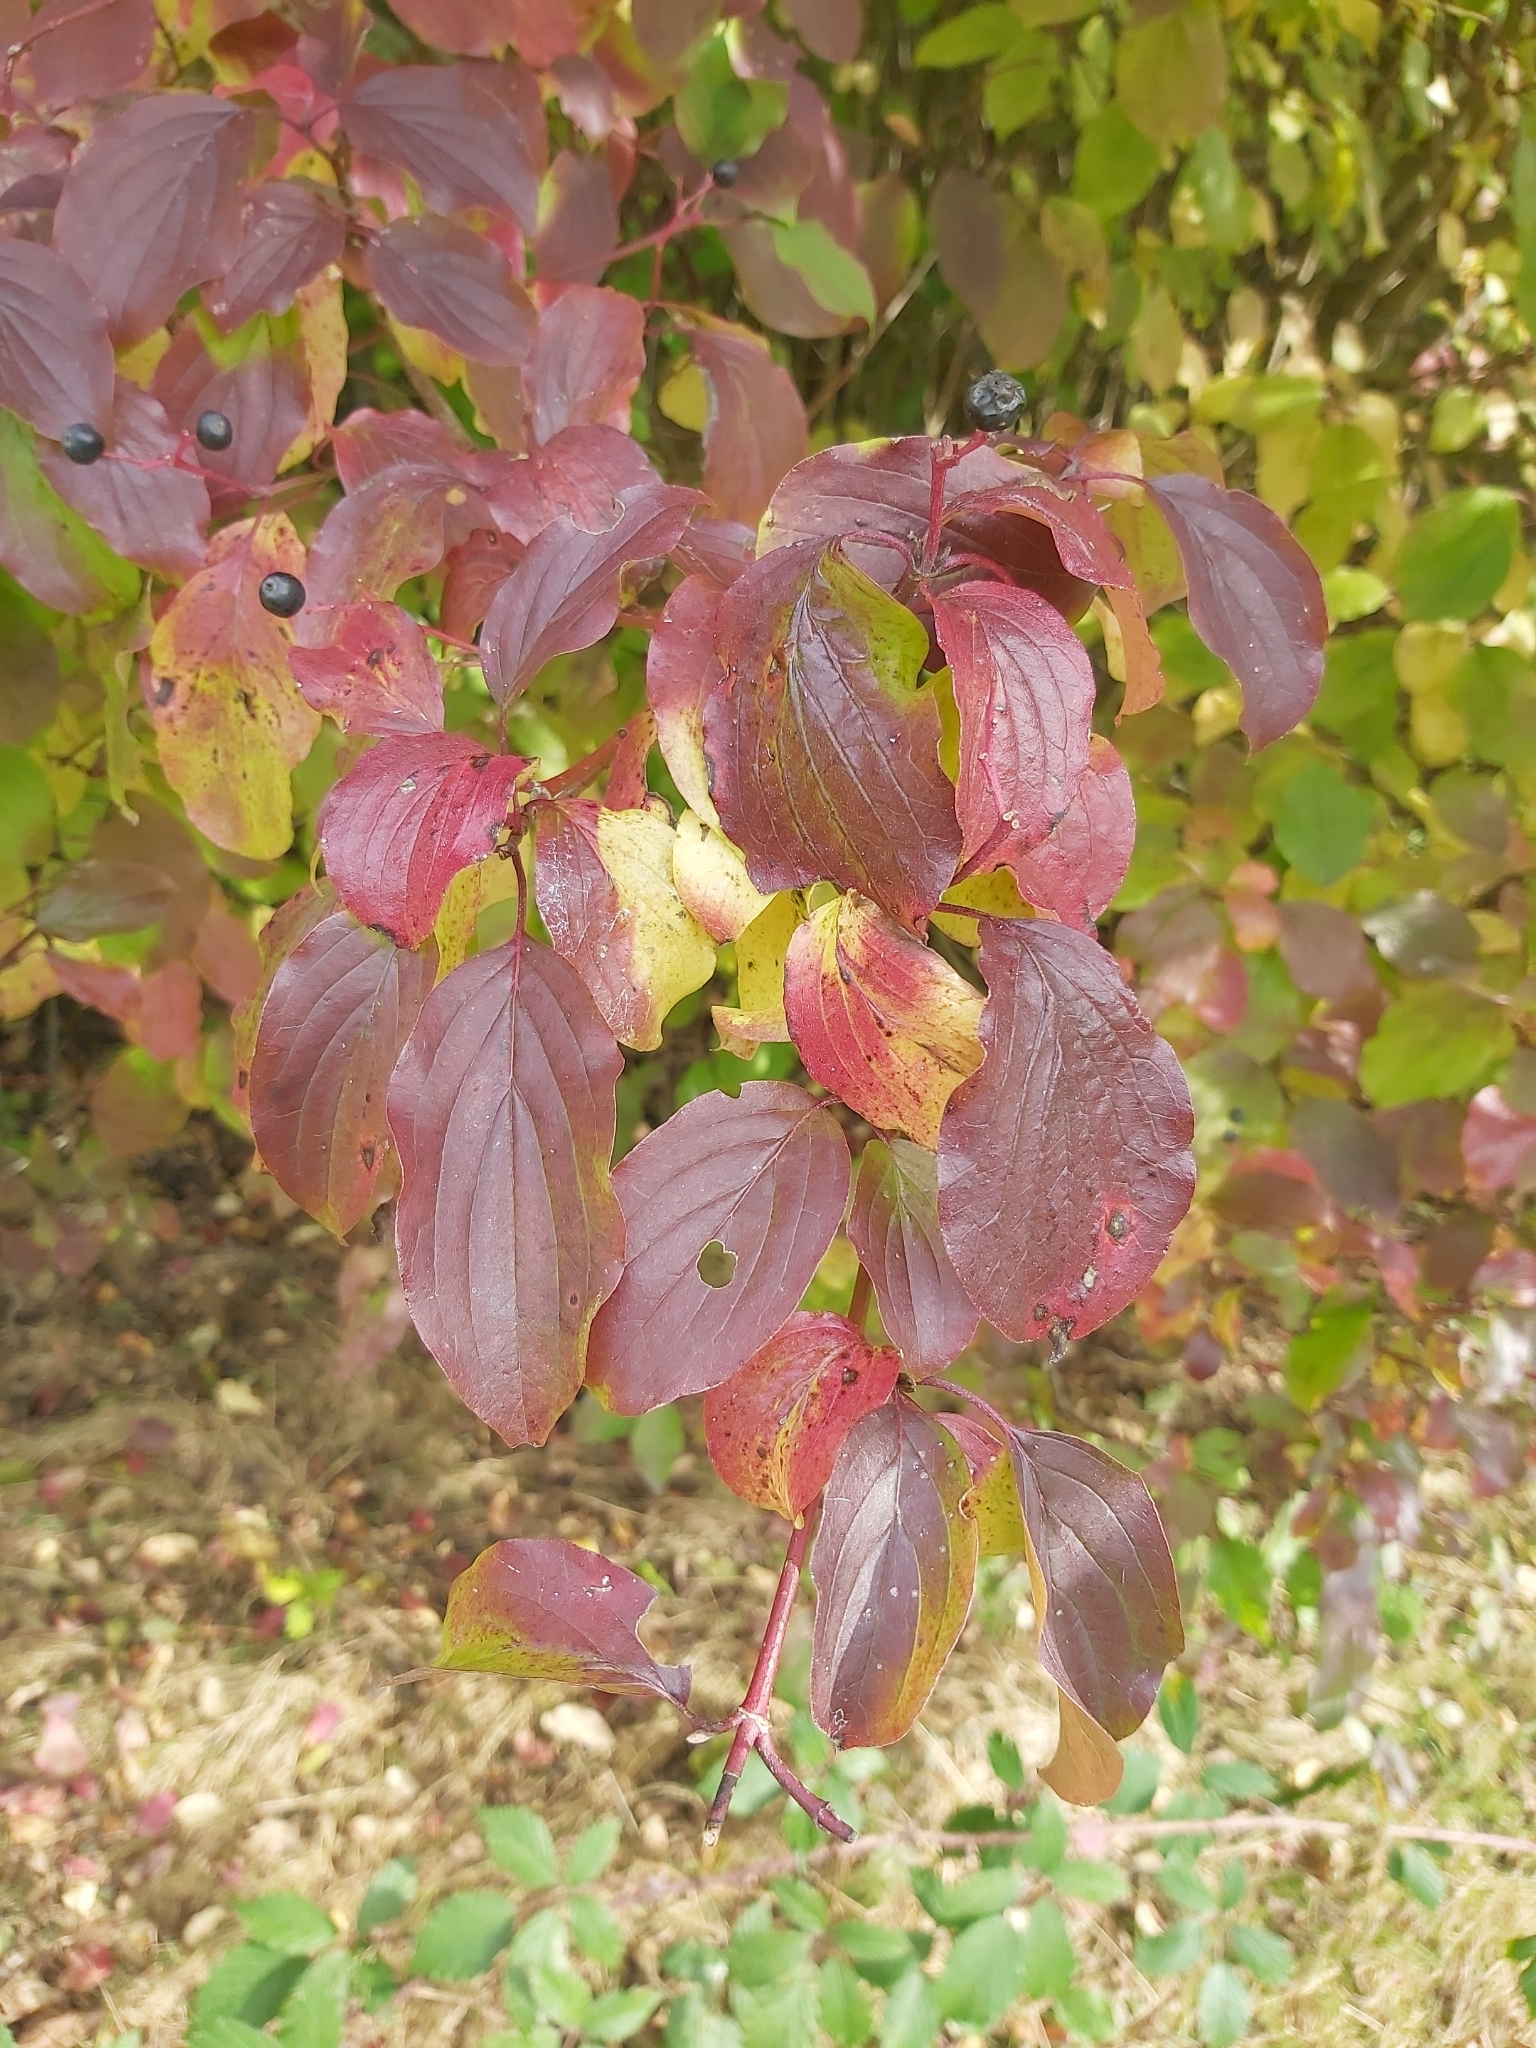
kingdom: Plantae
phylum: Tracheophyta
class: Magnoliopsida
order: Cornales
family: Cornaceae
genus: Cornus
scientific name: Cornus sanguinea
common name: Dogwood
